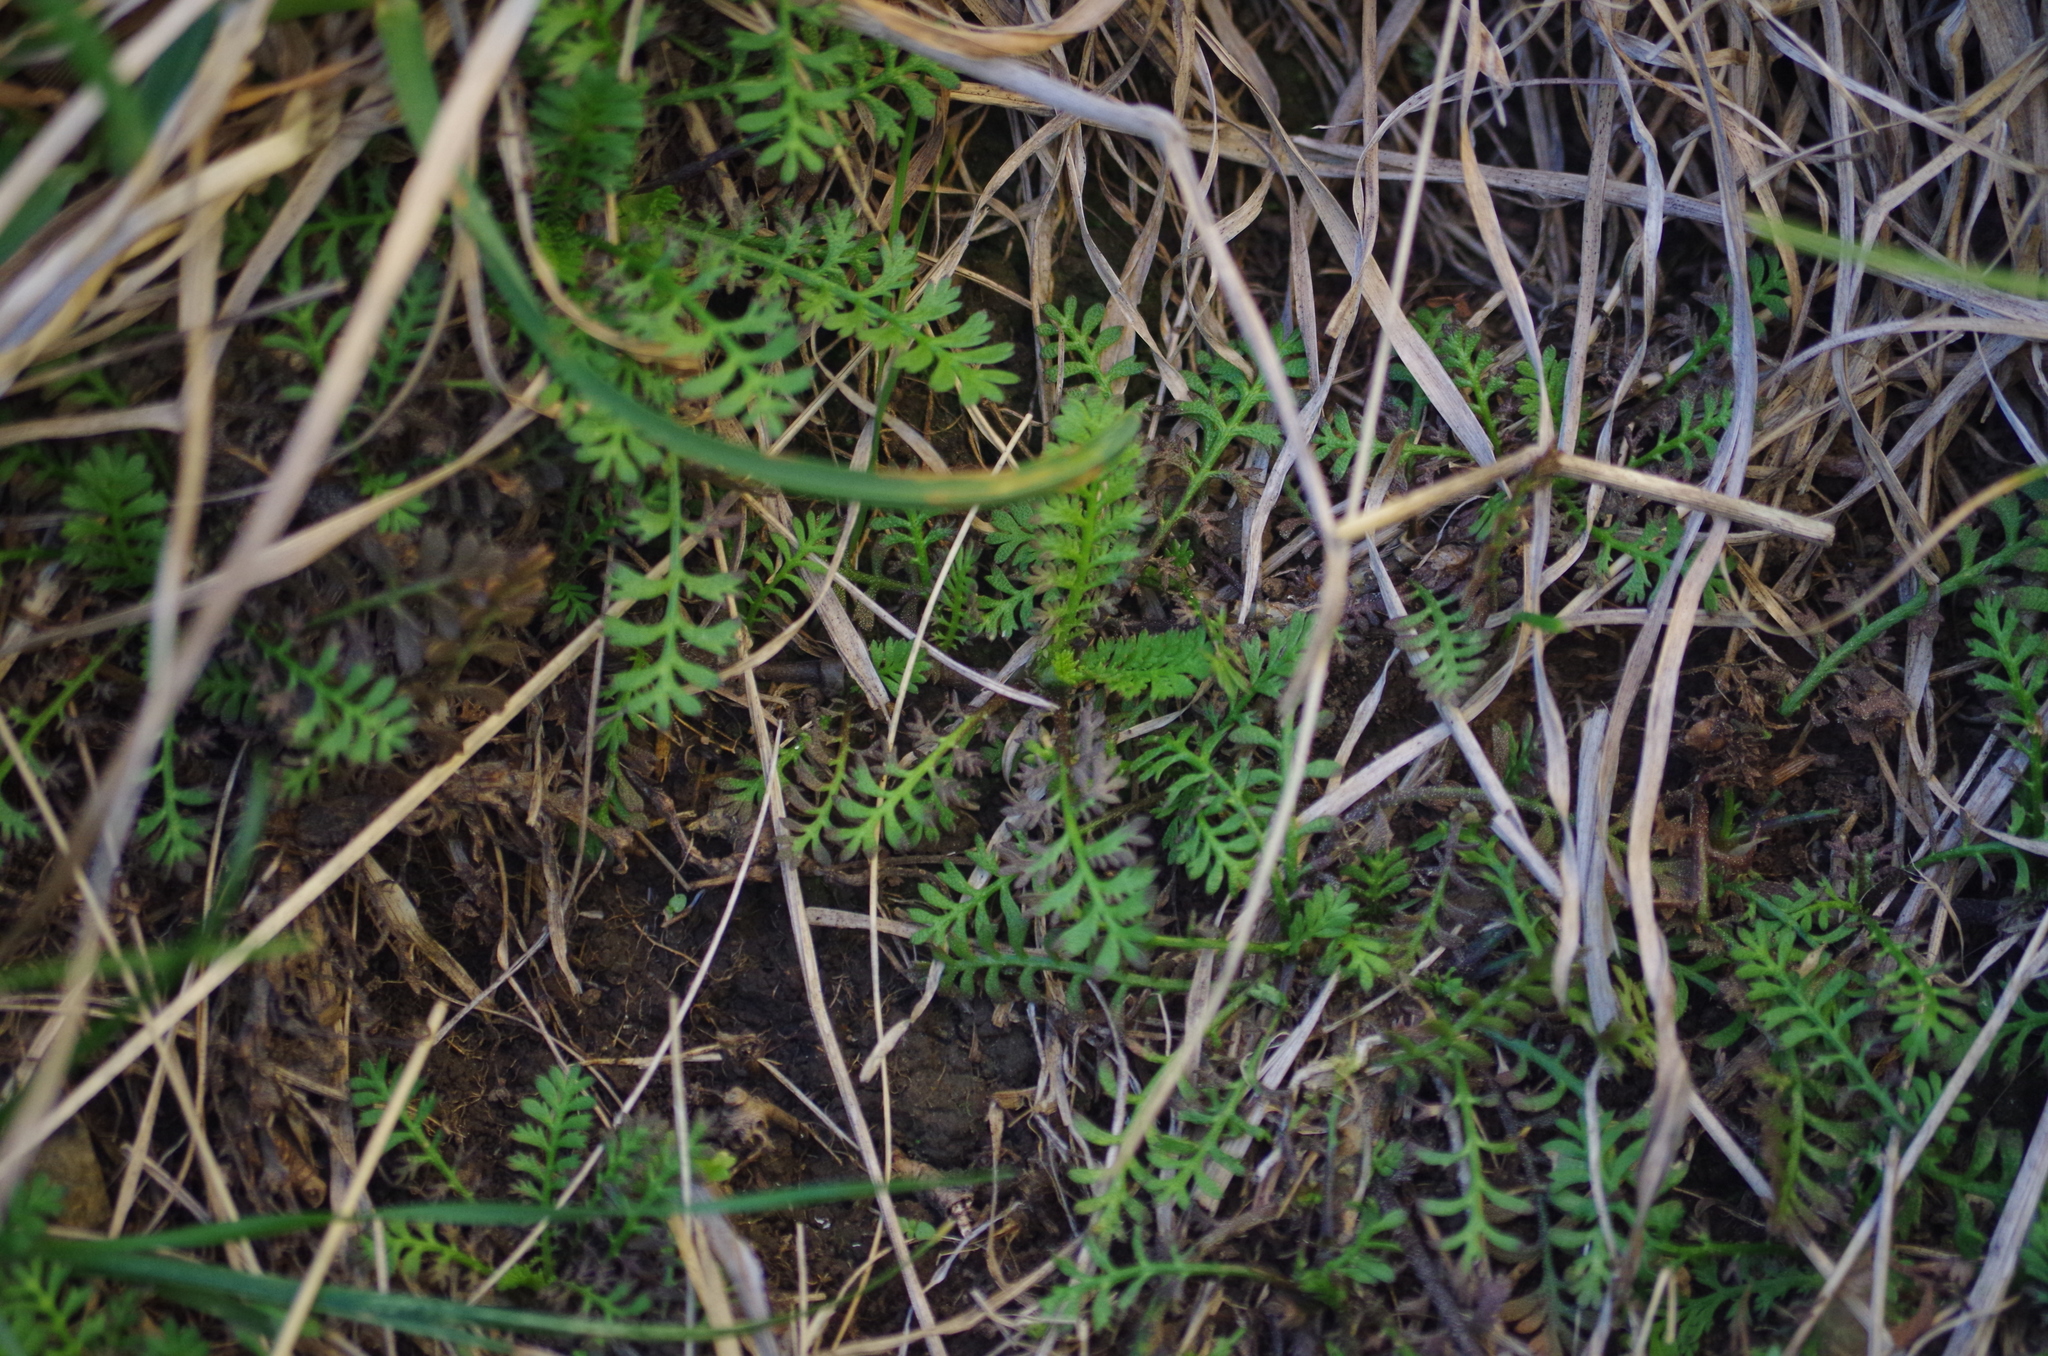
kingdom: Plantae
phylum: Tracheophyta
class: Magnoliopsida
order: Asterales
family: Asteraceae
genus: Leptinella
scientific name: Leptinella minor
